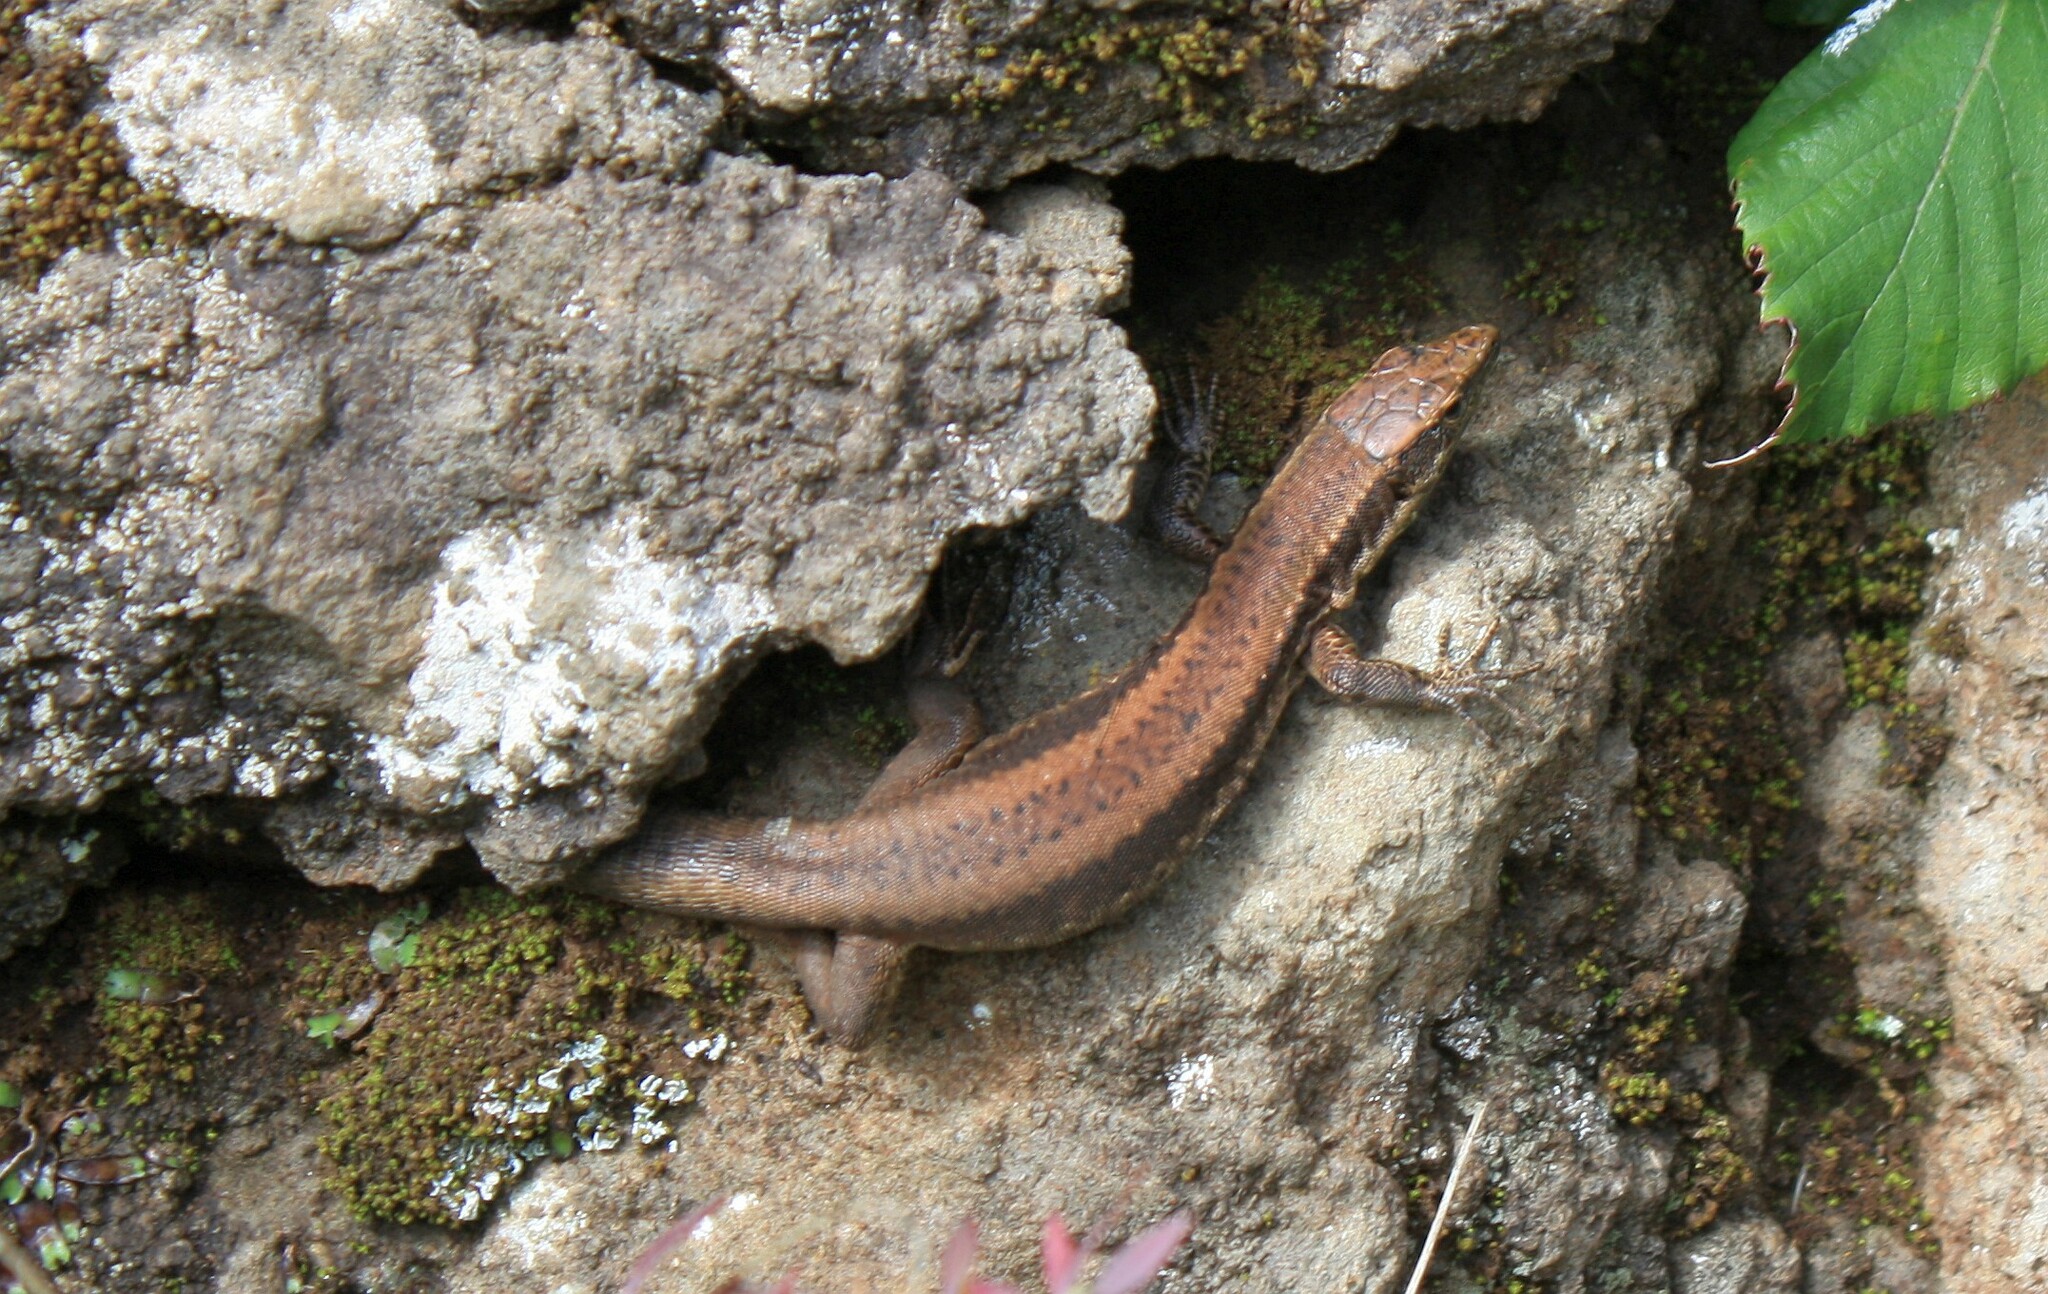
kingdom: Animalia
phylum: Chordata
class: Squamata
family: Lacertidae
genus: Teira
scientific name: Teira dugesii
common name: Madeira lizard
